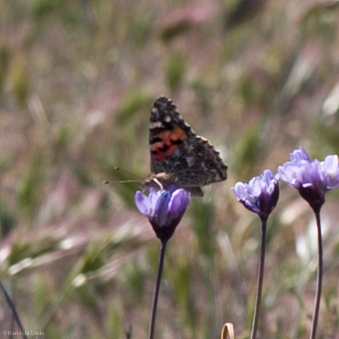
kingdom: Animalia
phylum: Arthropoda
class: Insecta
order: Lepidoptera
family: Nymphalidae
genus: Vanessa
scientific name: Vanessa cardui
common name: Painted lady
